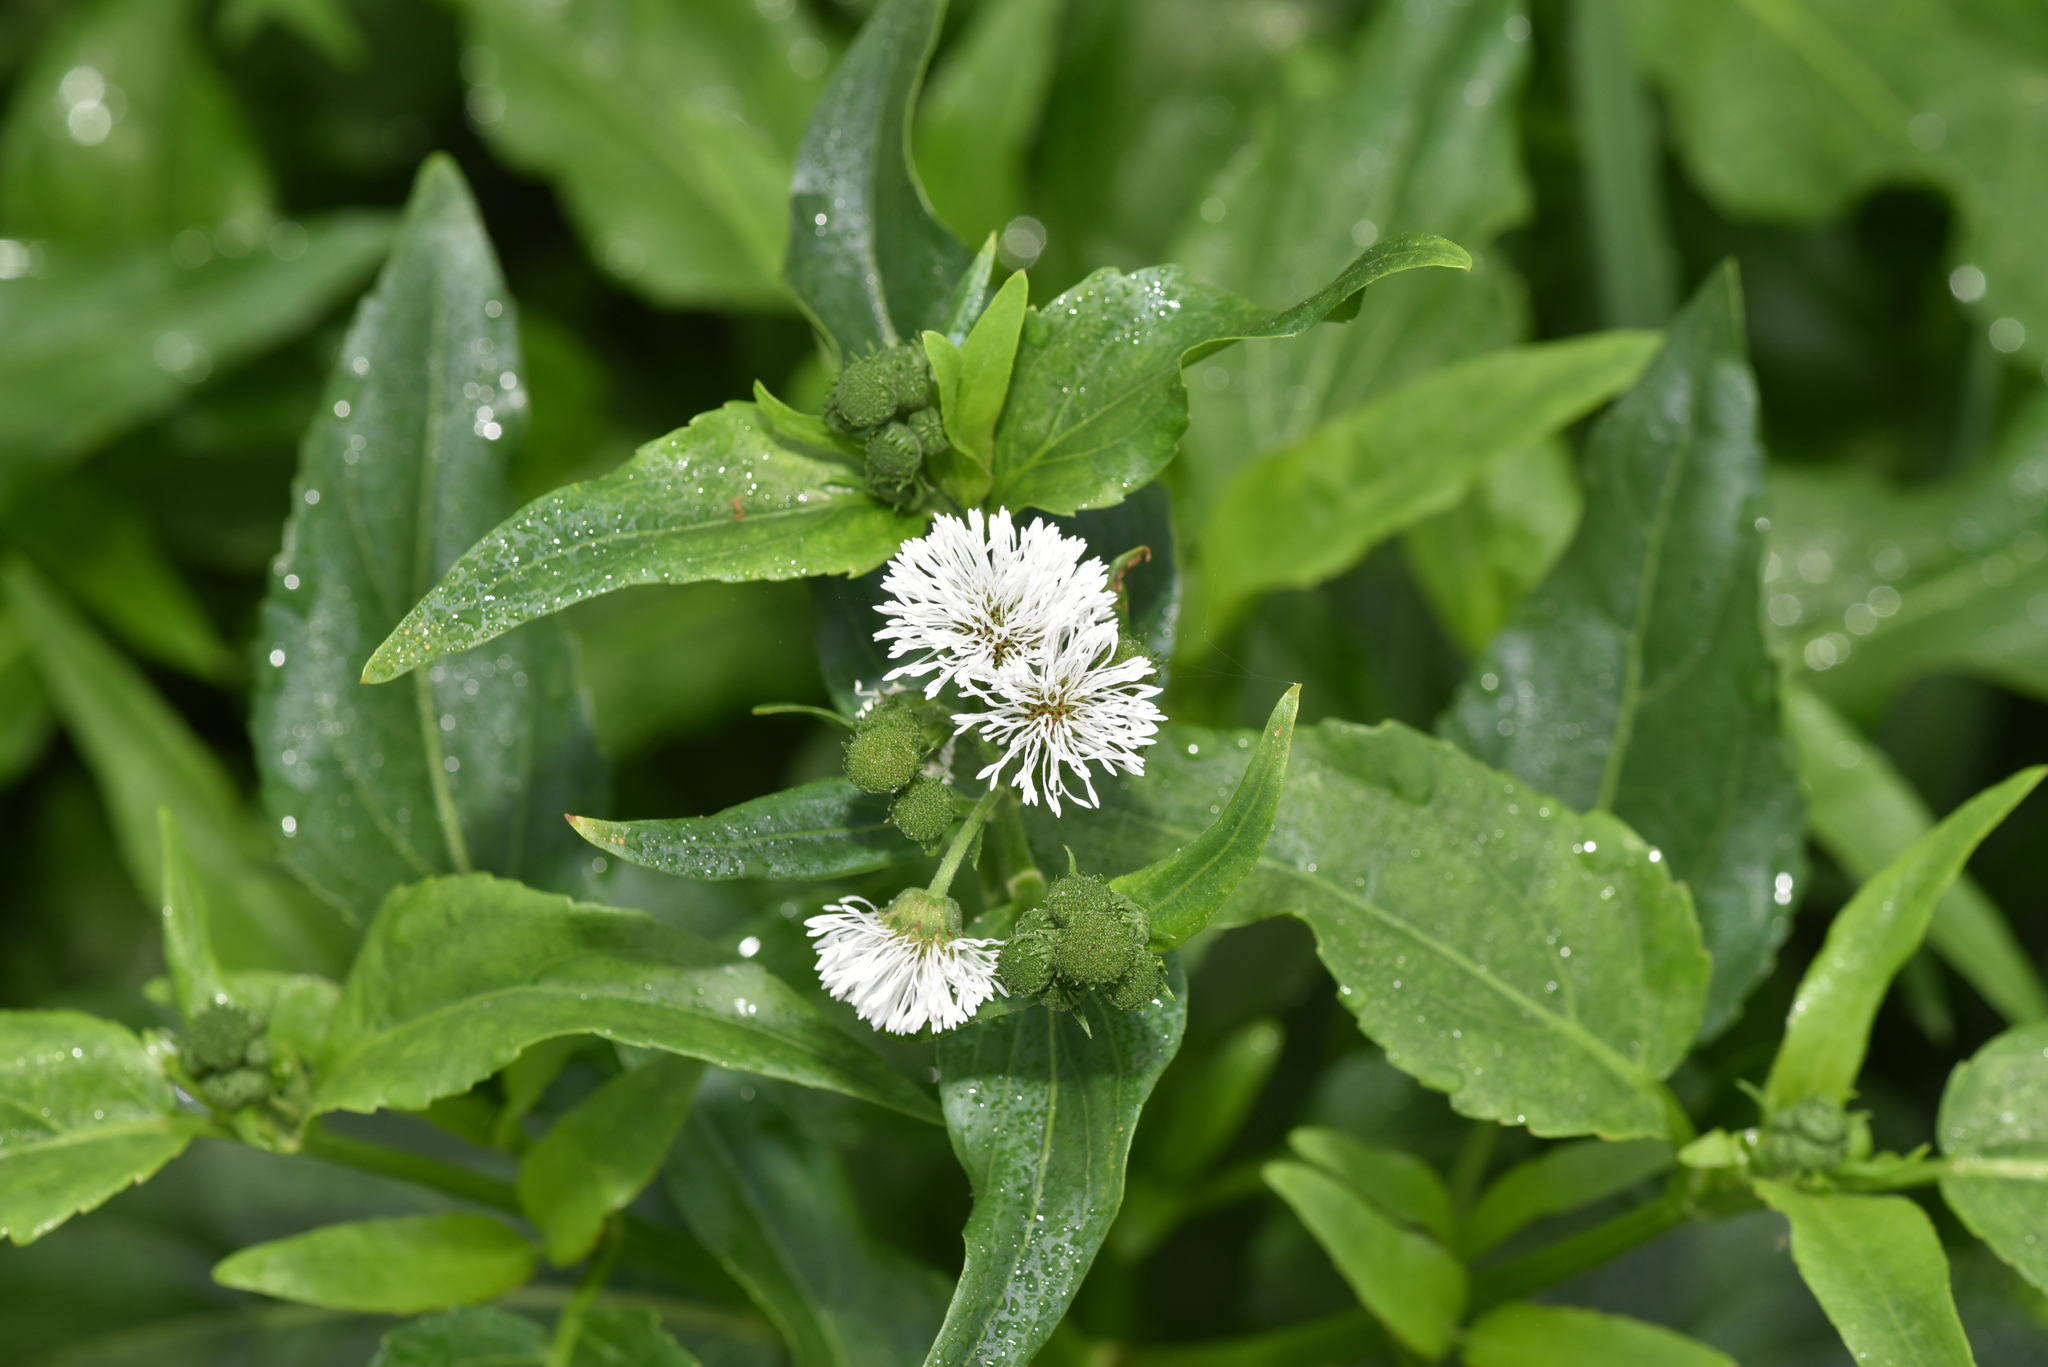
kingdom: Plantae
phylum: Tracheophyta
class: Magnoliopsida
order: Asterales
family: Asteraceae
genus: Gymnocoronis
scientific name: Gymnocoronis spilanthoides
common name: Senegal teaplant
